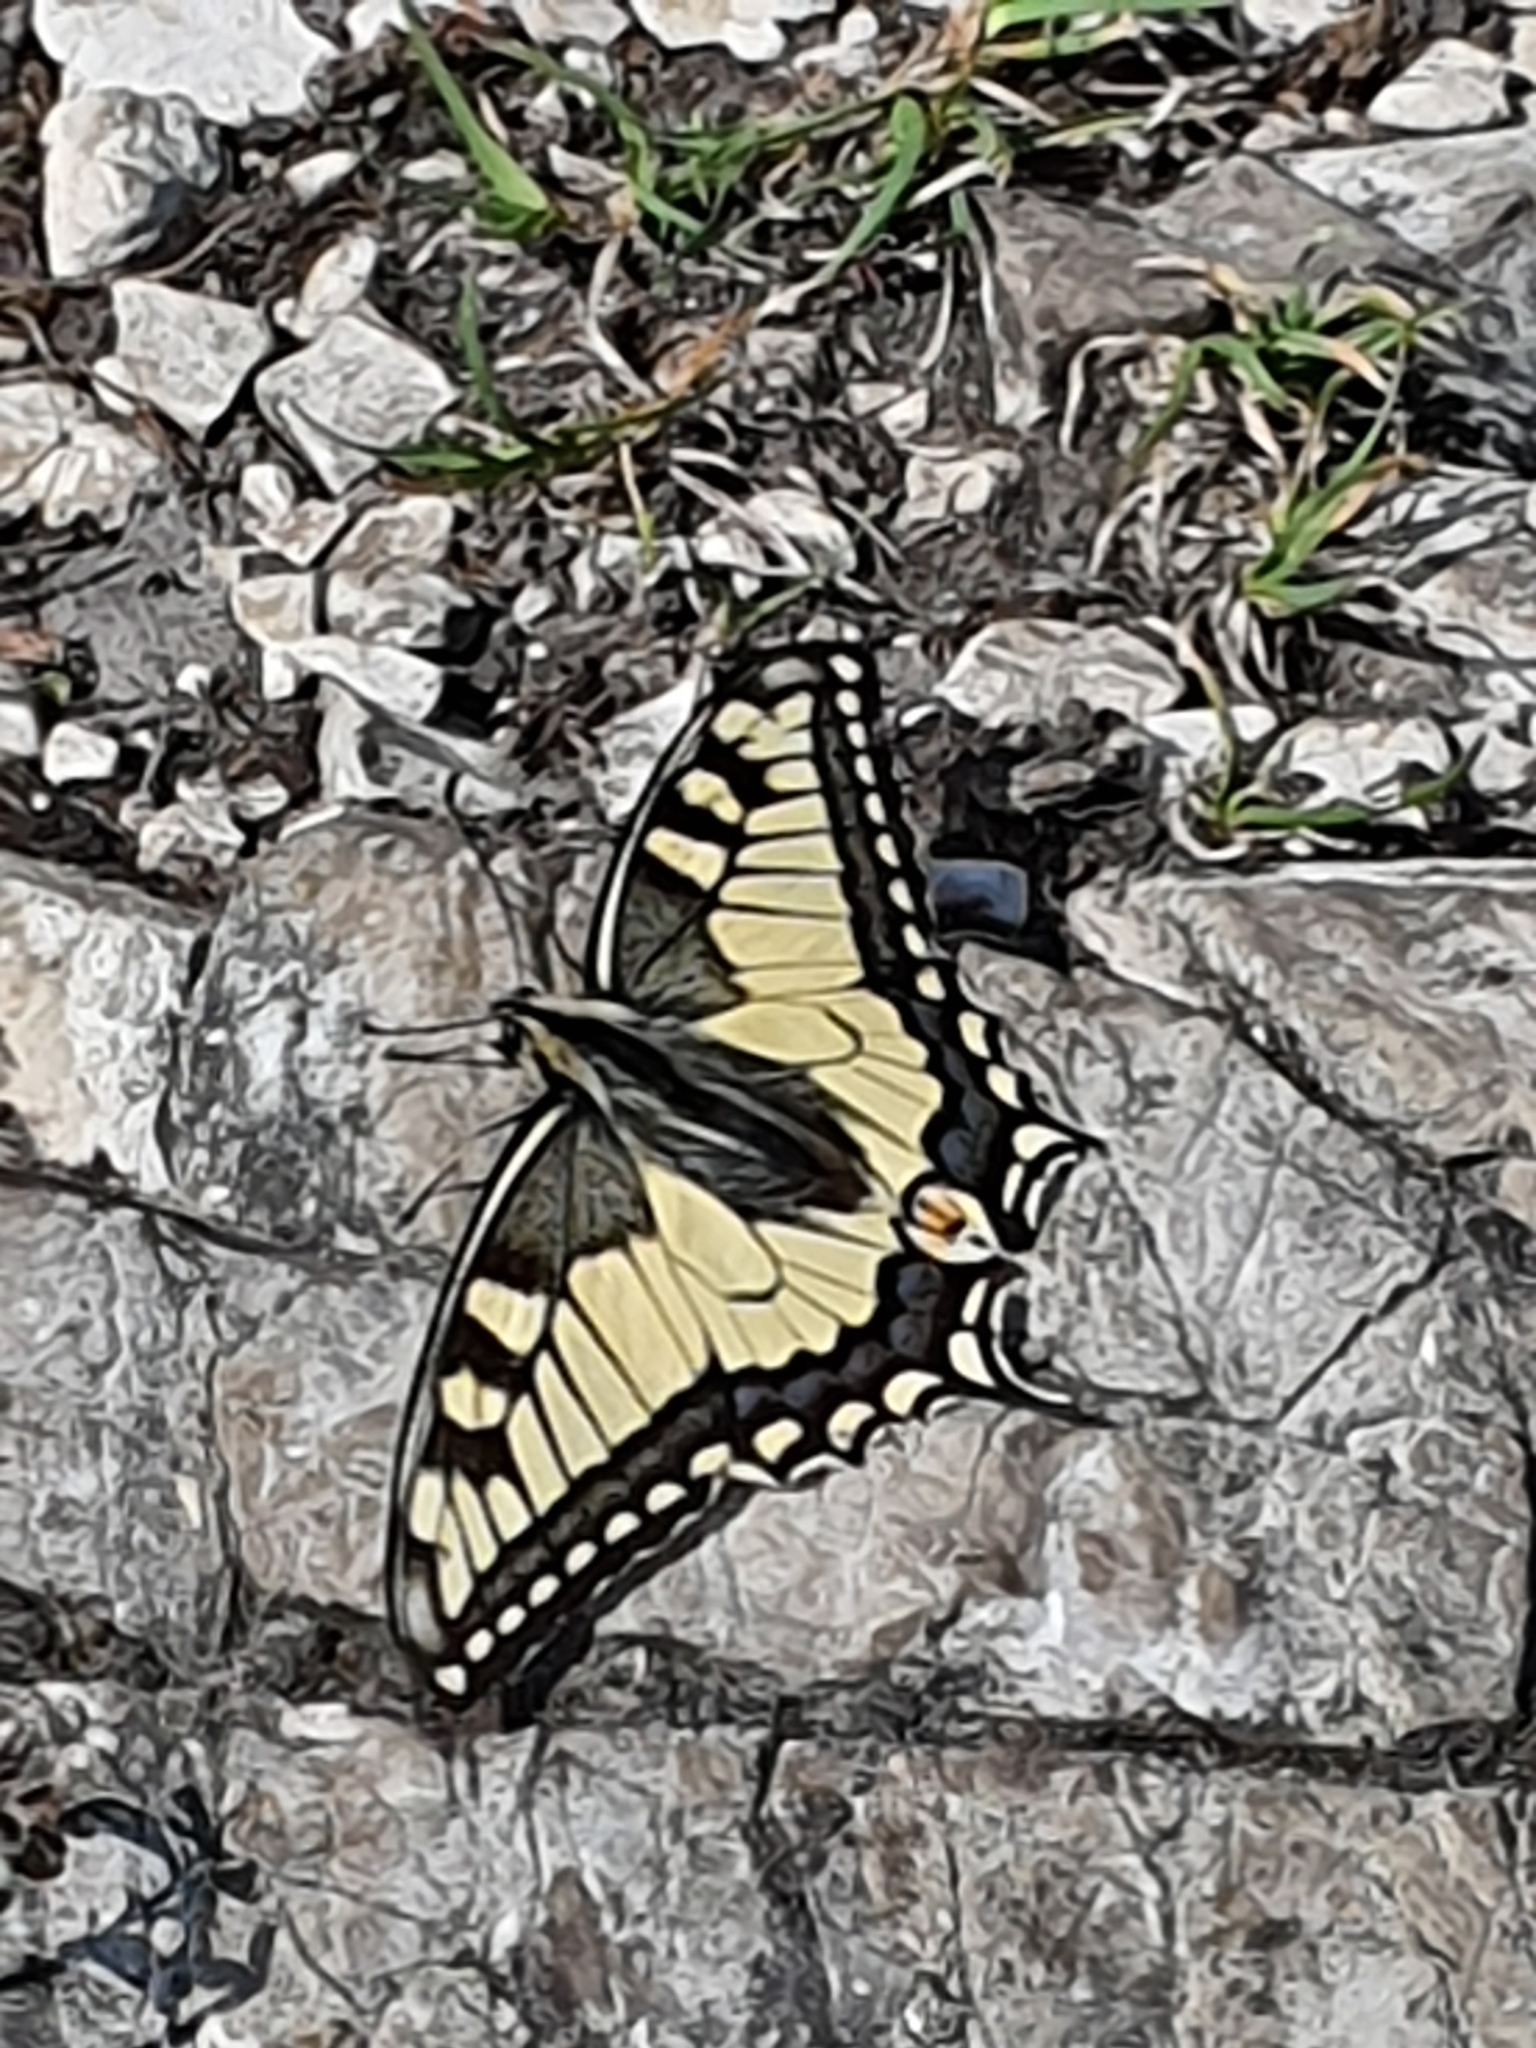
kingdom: Animalia
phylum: Arthropoda
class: Insecta
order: Lepidoptera
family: Papilionidae
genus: Papilio
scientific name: Papilio machaon
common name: Swallowtail
